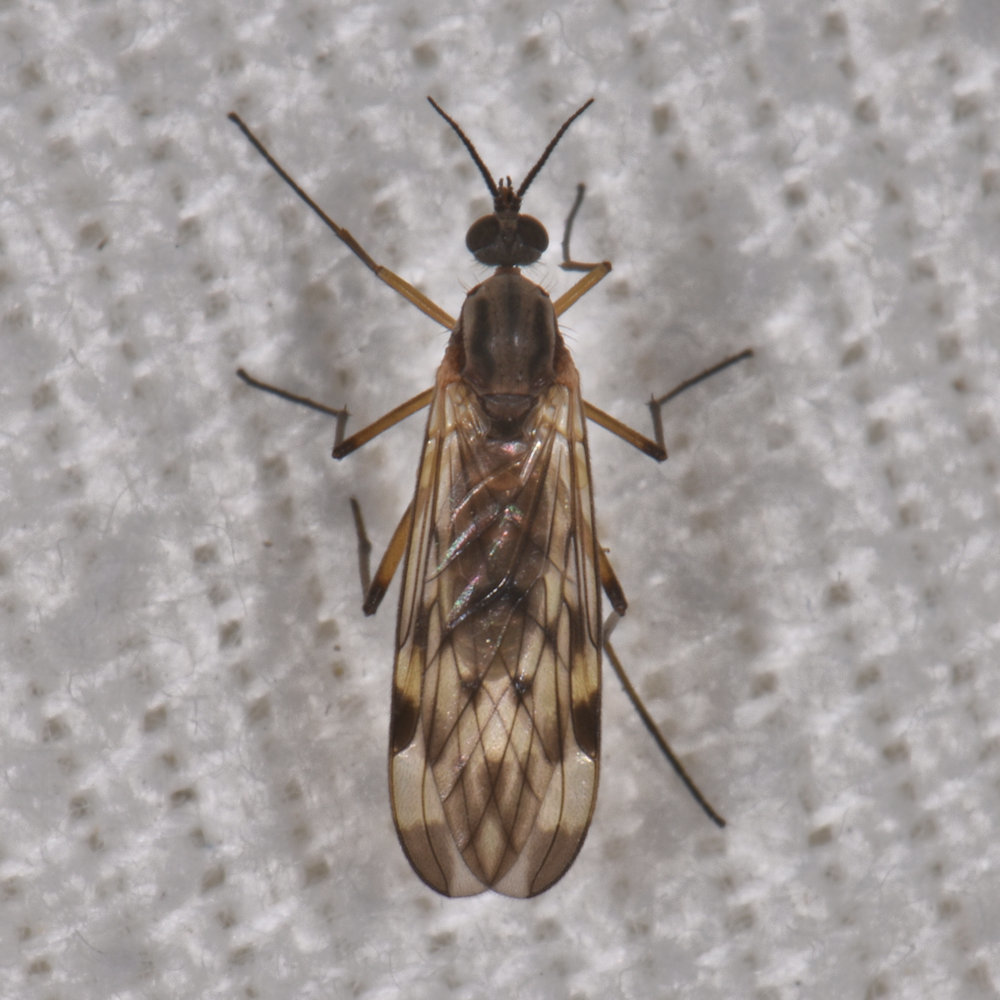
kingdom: Animalia
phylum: Arthropoda
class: Insecta
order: Diptera
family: Anisopodidae
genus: Sylvicola
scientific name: Sylvicola fenestralis
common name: Window gnat
